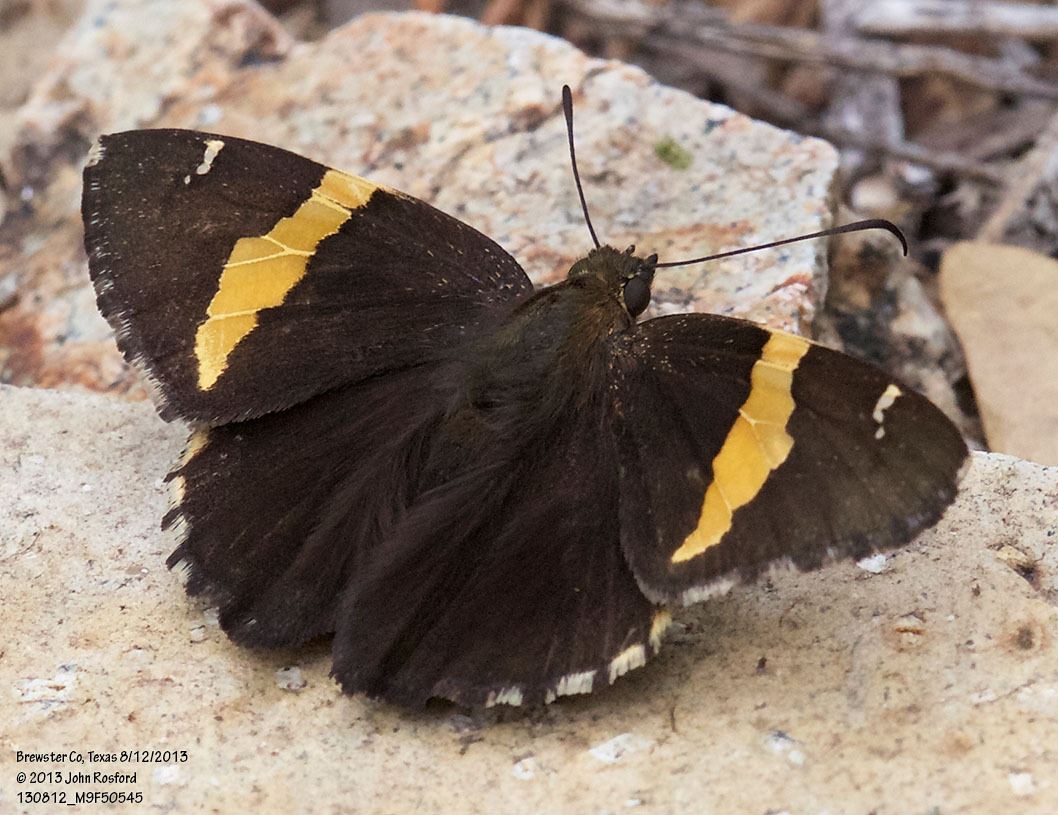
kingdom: Animalia
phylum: Arthropoda
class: Arachnida
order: Scorpiones
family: Bothriuridae
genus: Telegonus
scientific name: Telegonus cellus
